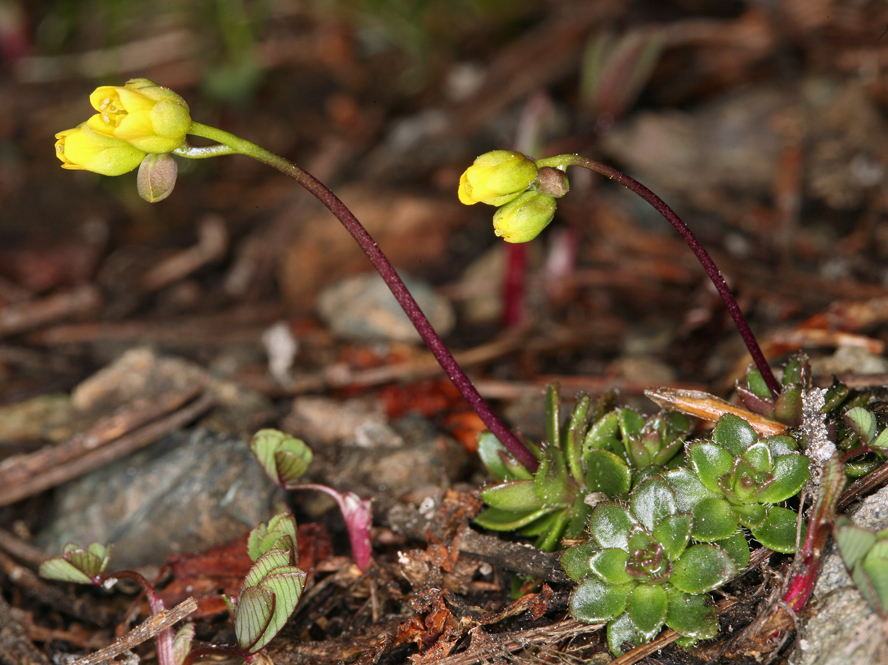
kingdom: Plantae
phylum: Tracheophyta
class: Magnoliopsida
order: Brassicales
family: Brassicaceae
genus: Draba
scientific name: Draba carnosula
